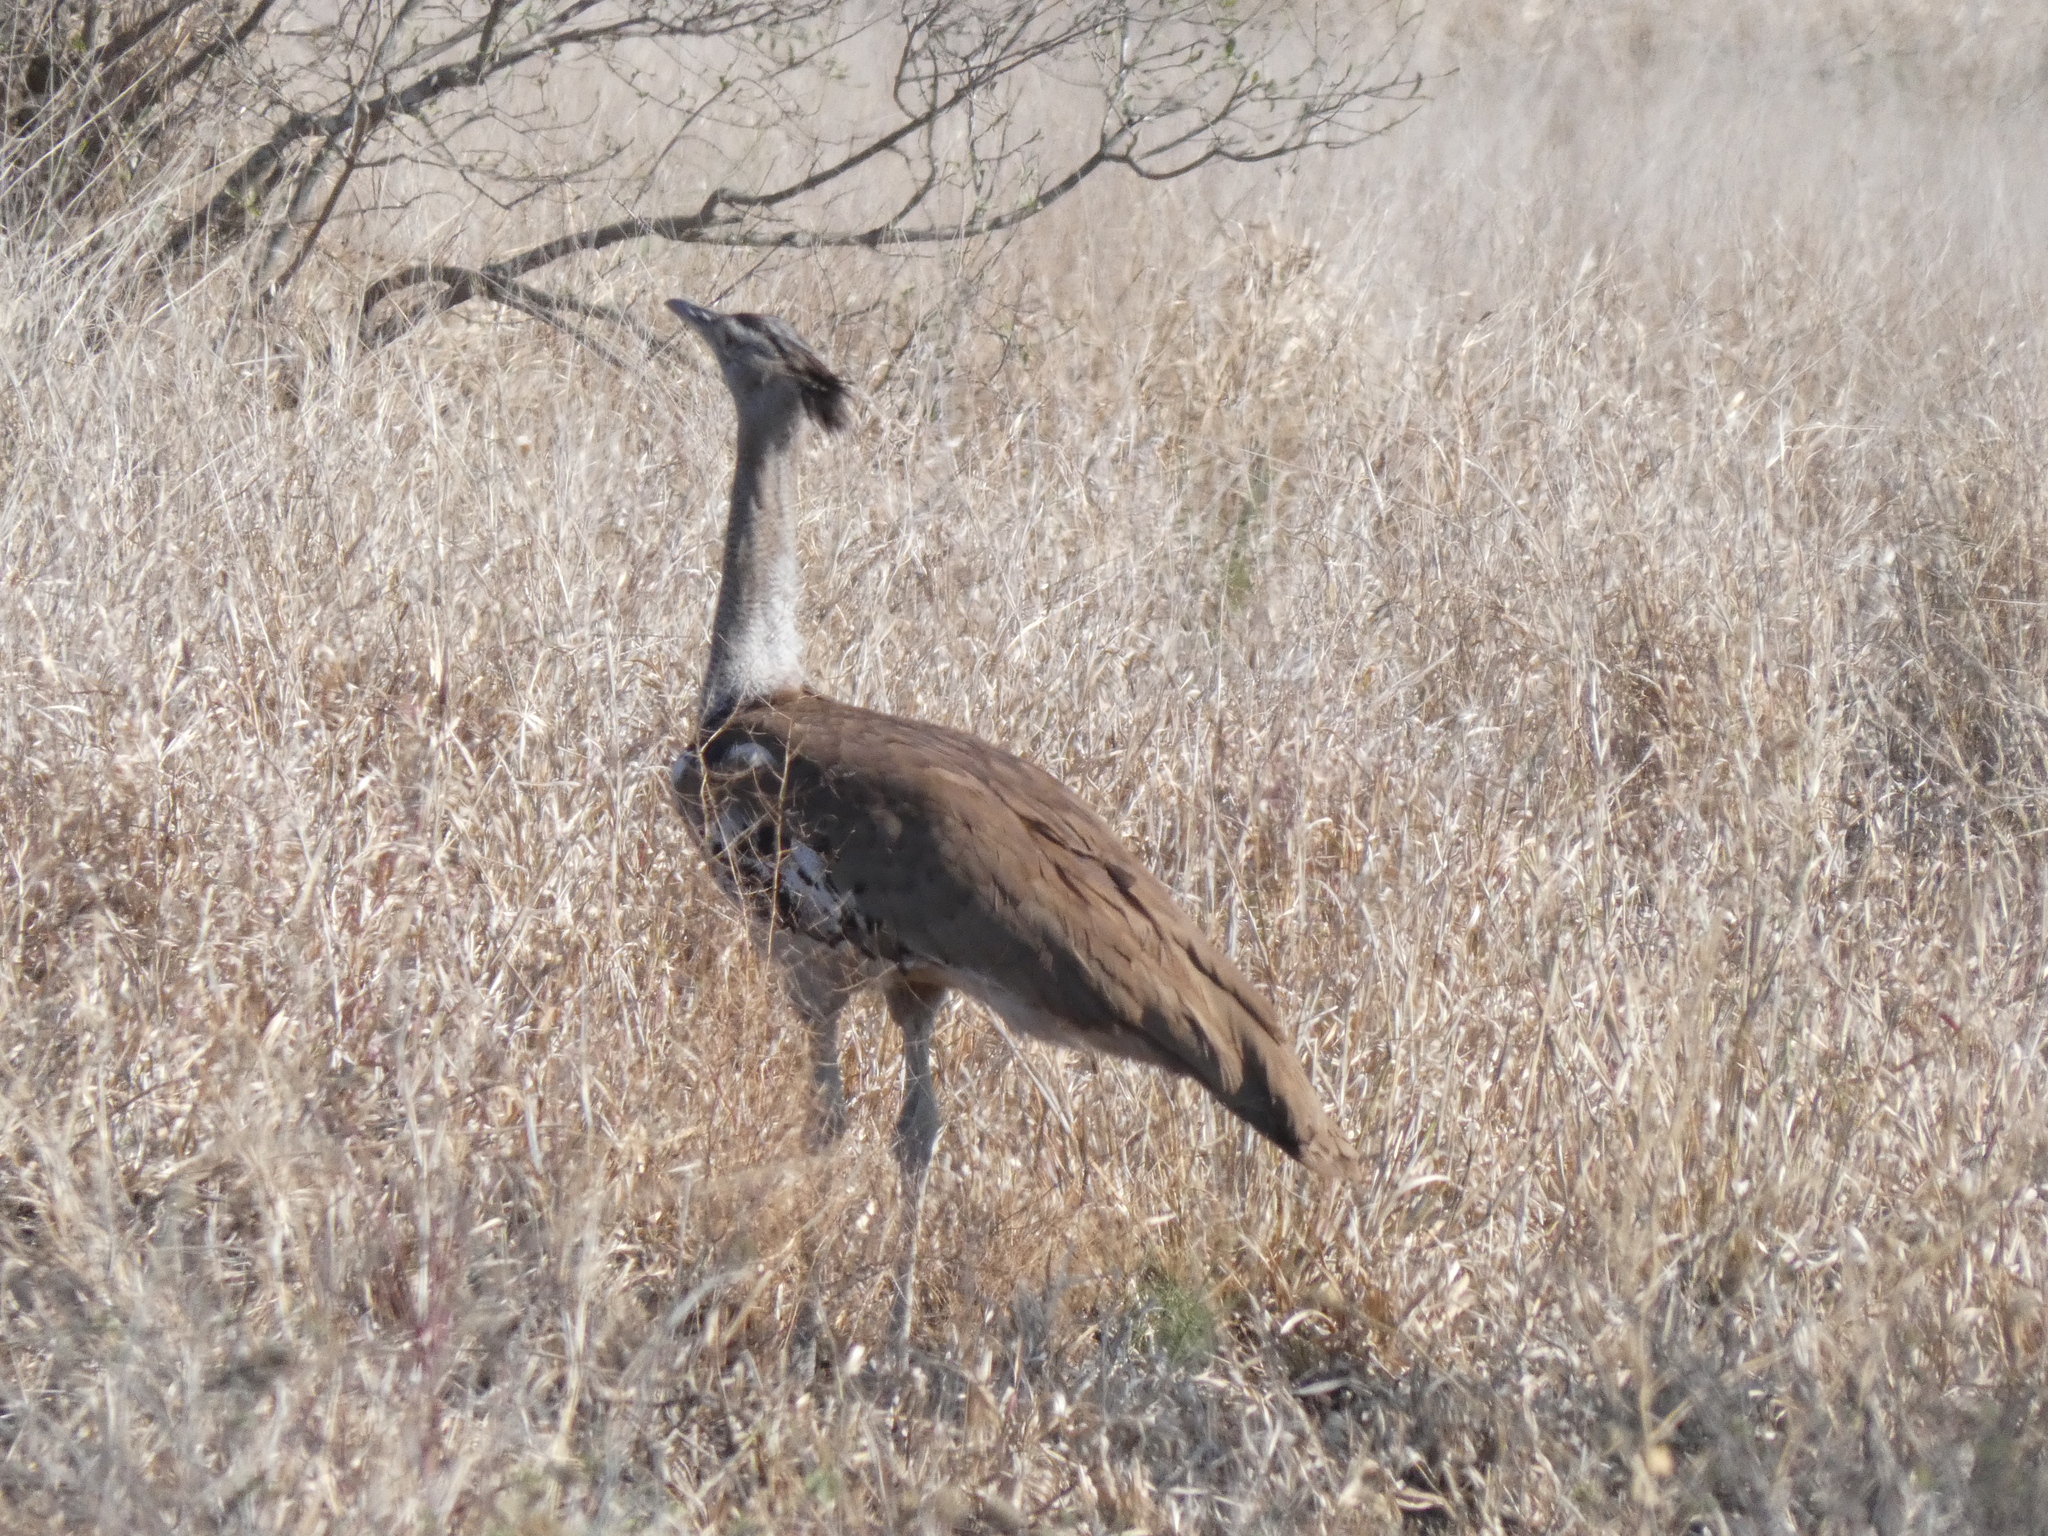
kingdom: Animalia
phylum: Chordata
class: Aves
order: Otidiformes
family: Otididae
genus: Ardeotis
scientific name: Ardeotis kori
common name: Kori bustard
